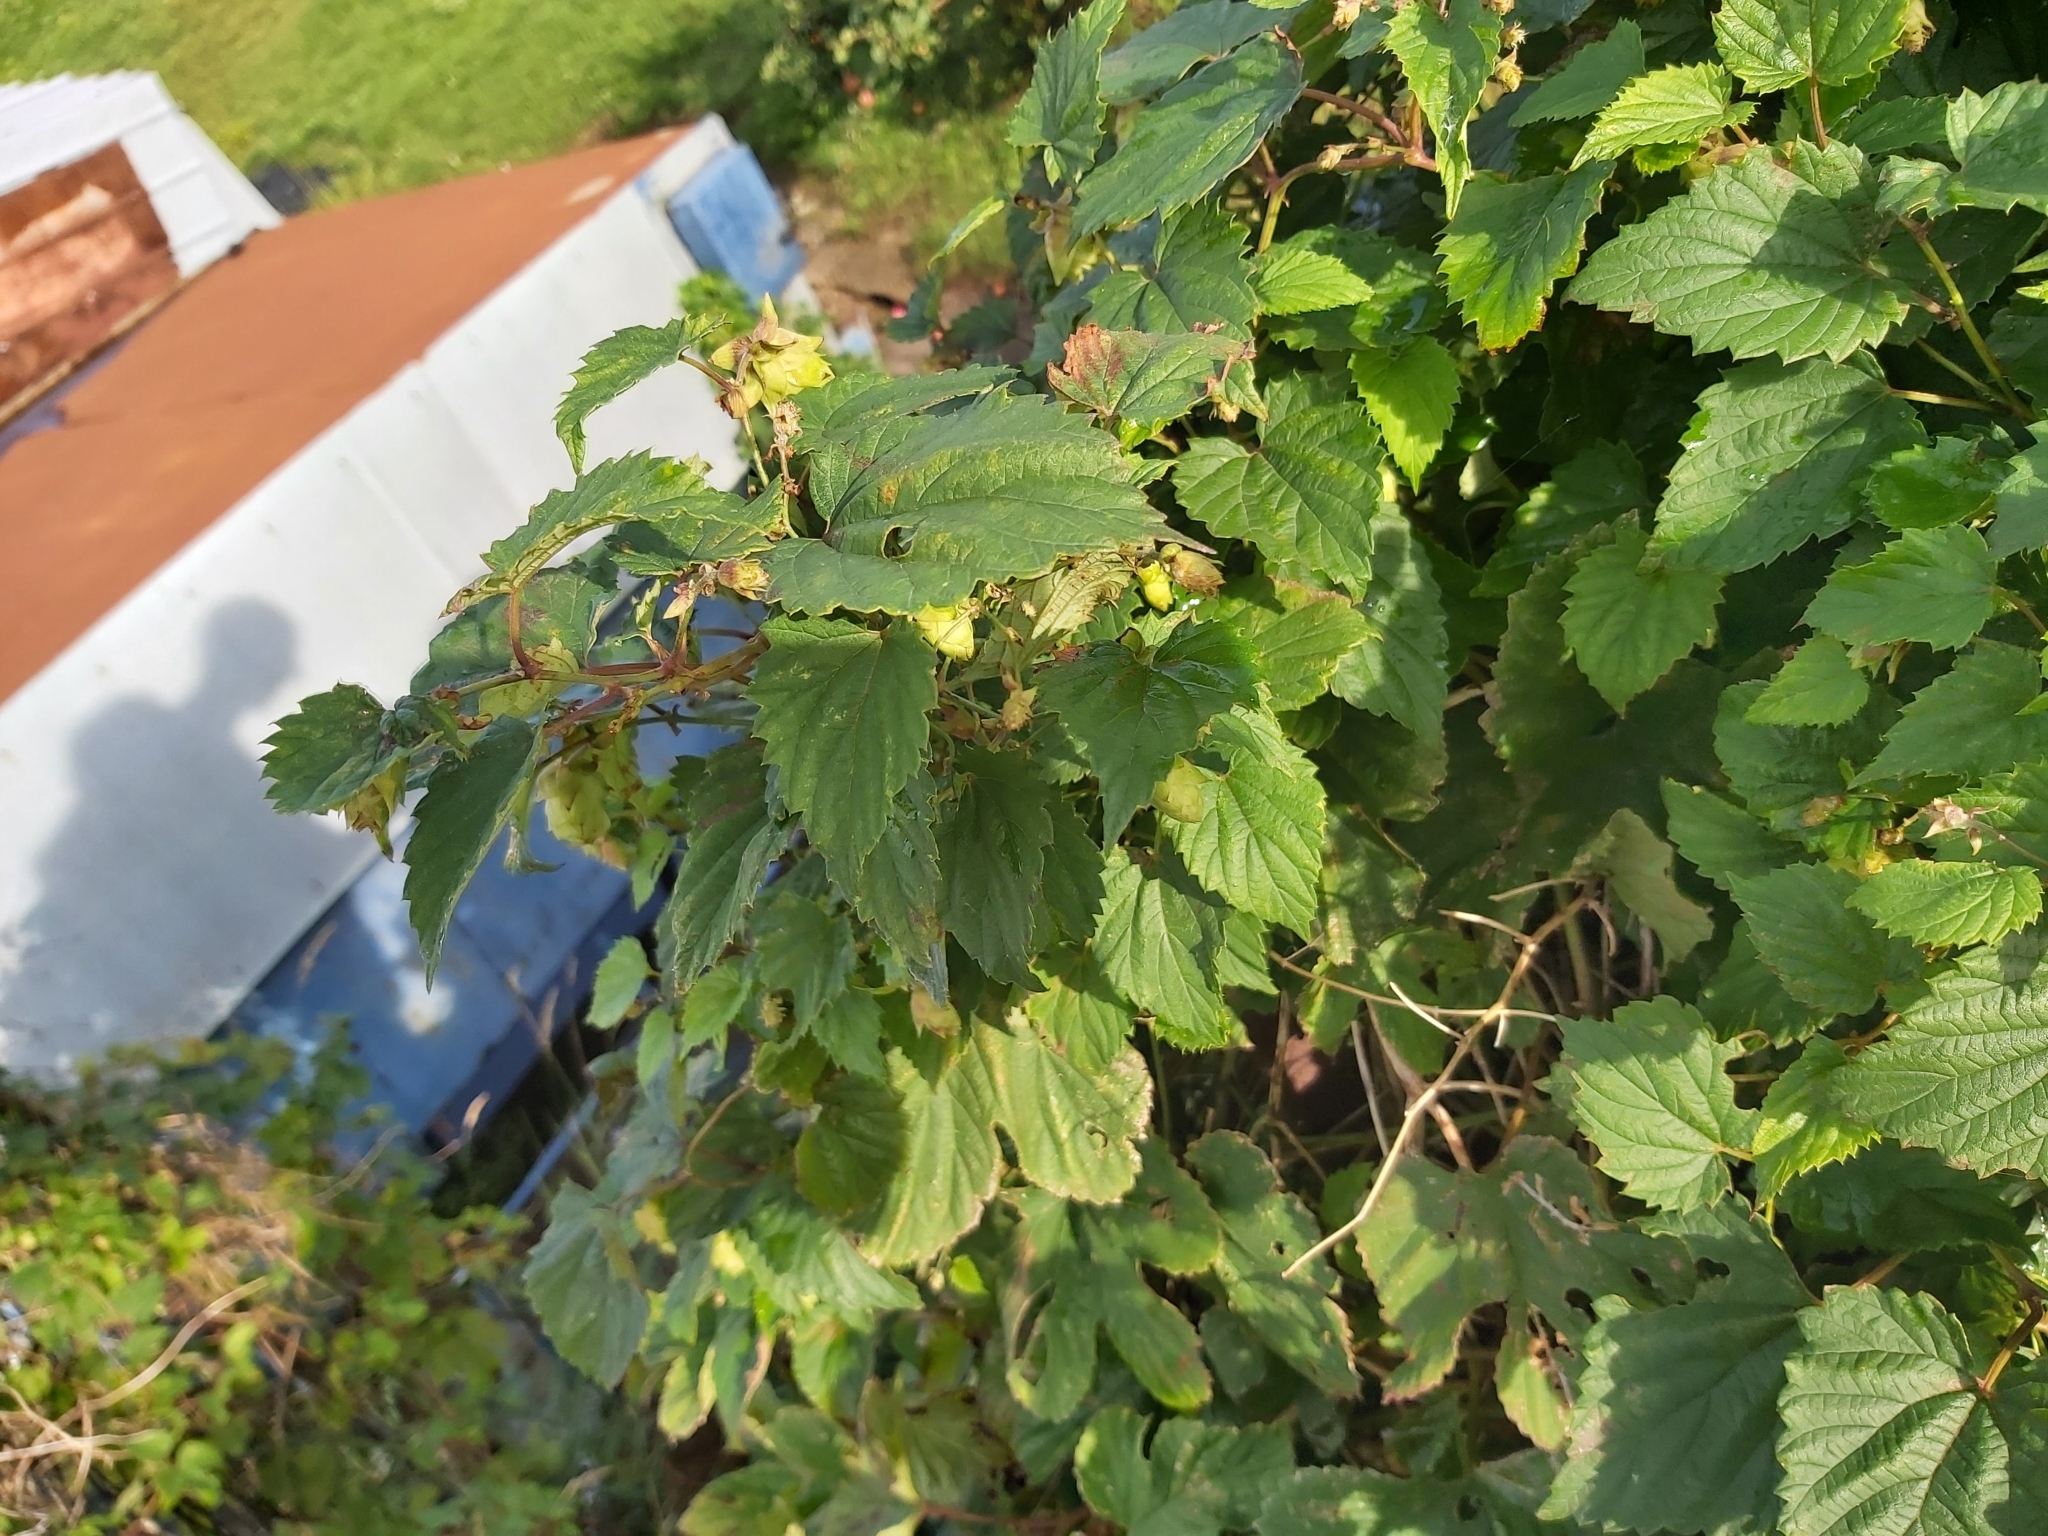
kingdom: Plantae
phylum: Tracheophyta
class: Magnoliopsida
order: Rosales
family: Cannabaceae
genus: Humulus
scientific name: Humulus lupulus
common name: Hop
